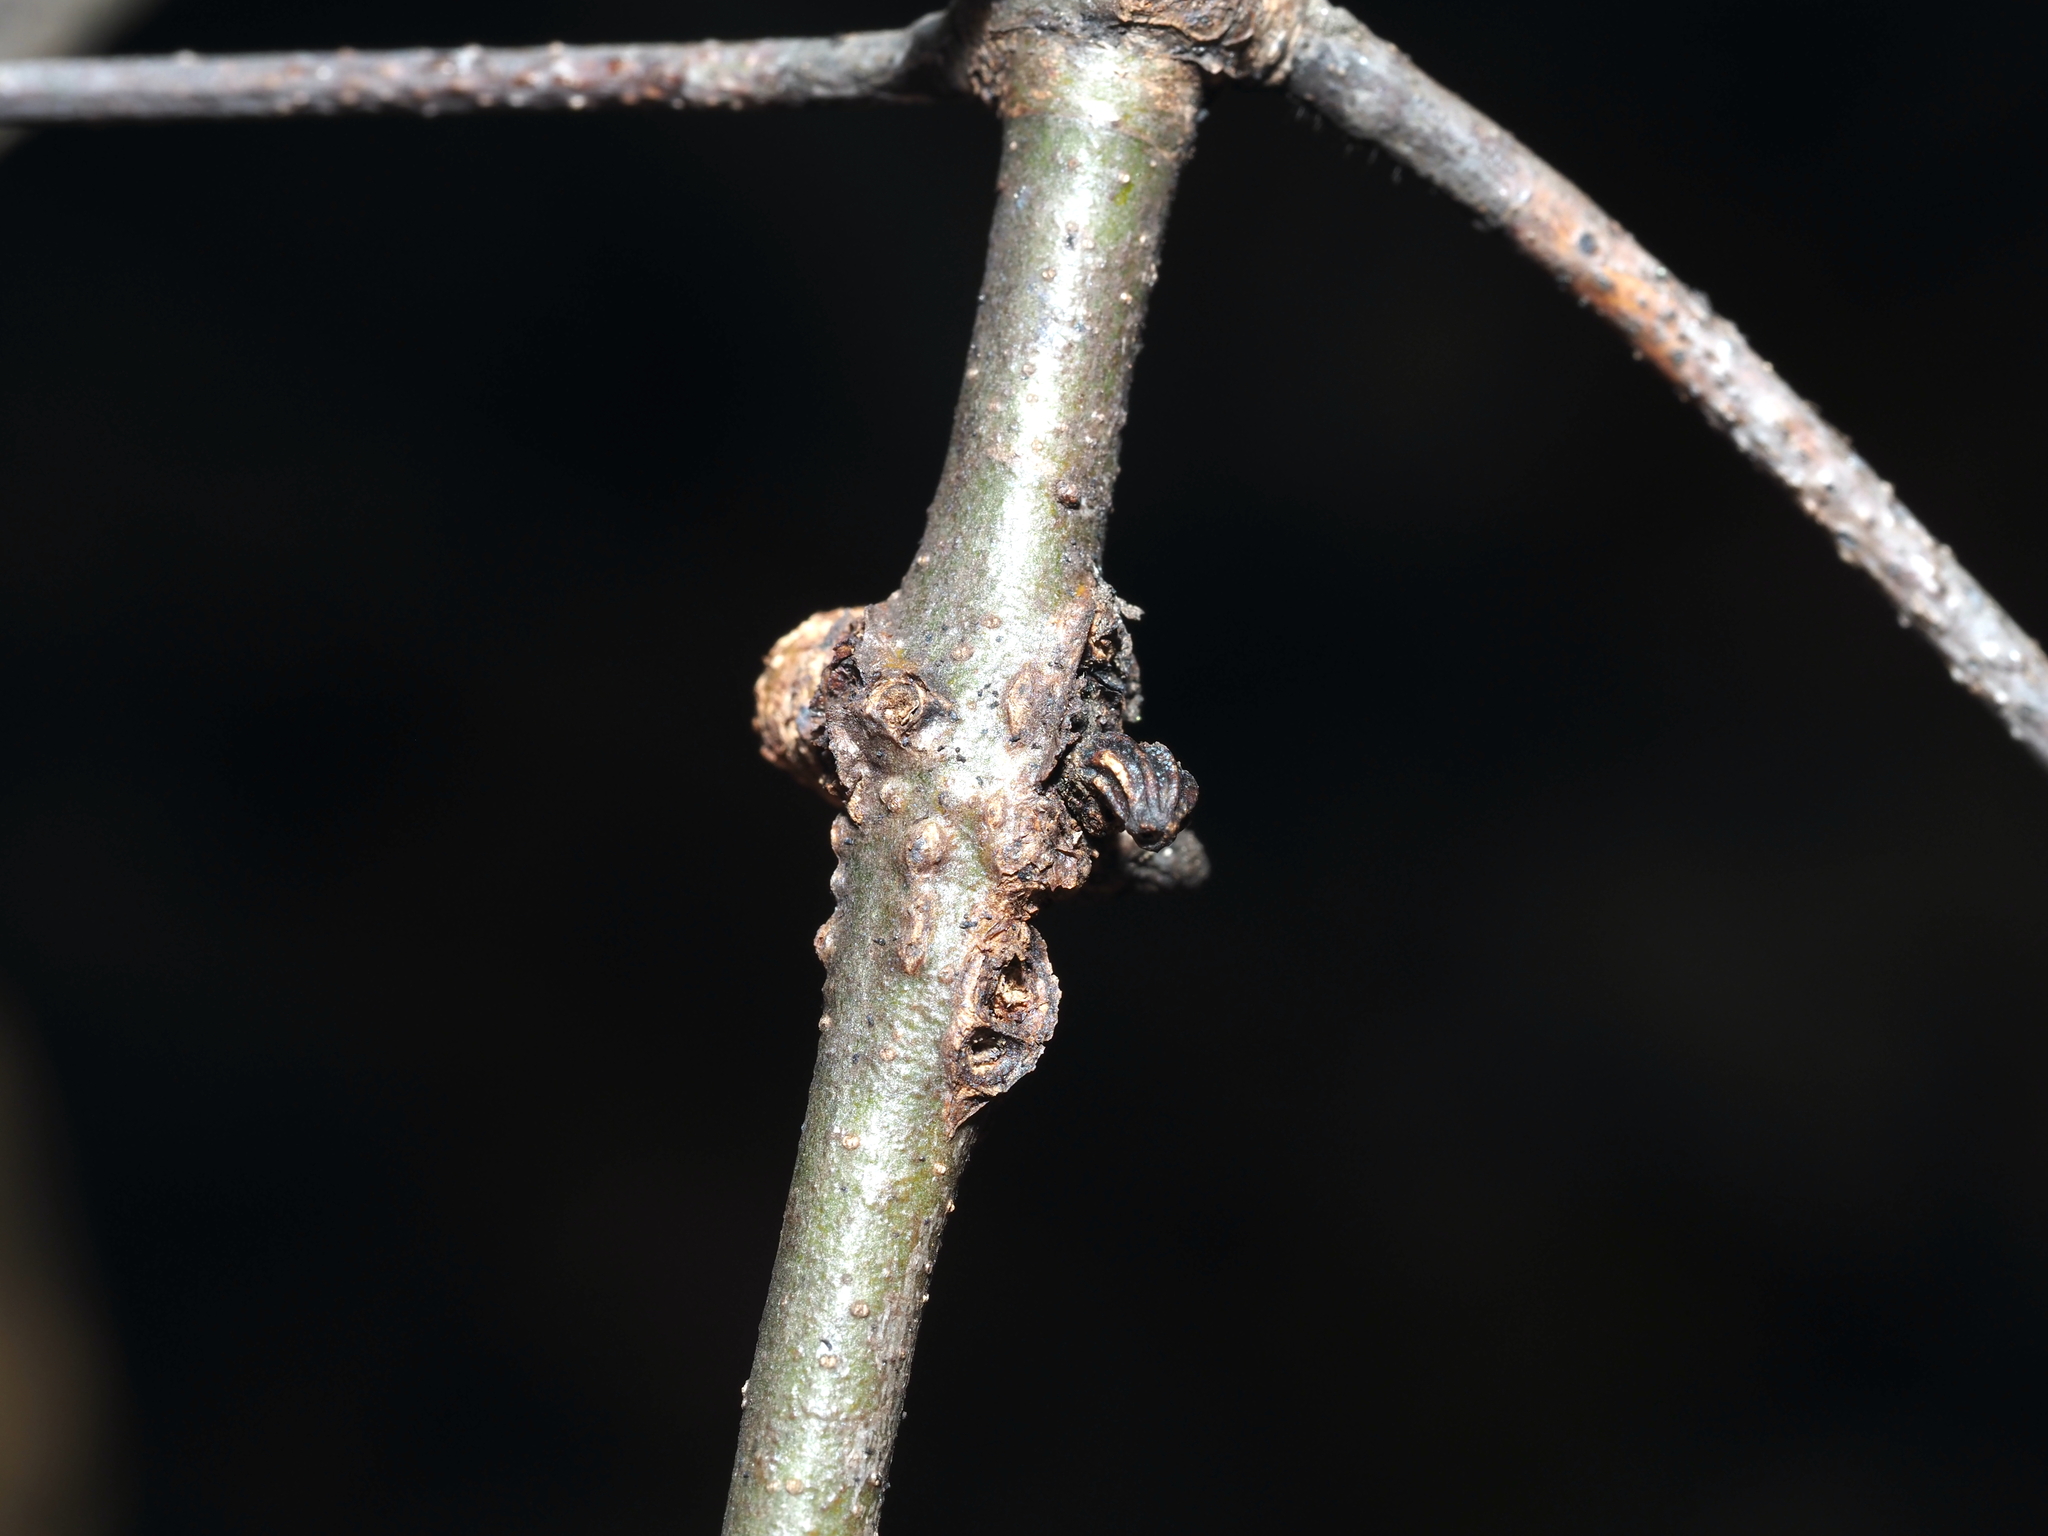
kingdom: Animalia
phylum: Arthropoda
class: Insecta
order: Hymenoptera
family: Cynipidae
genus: Callirhytis
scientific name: Callirhytis
